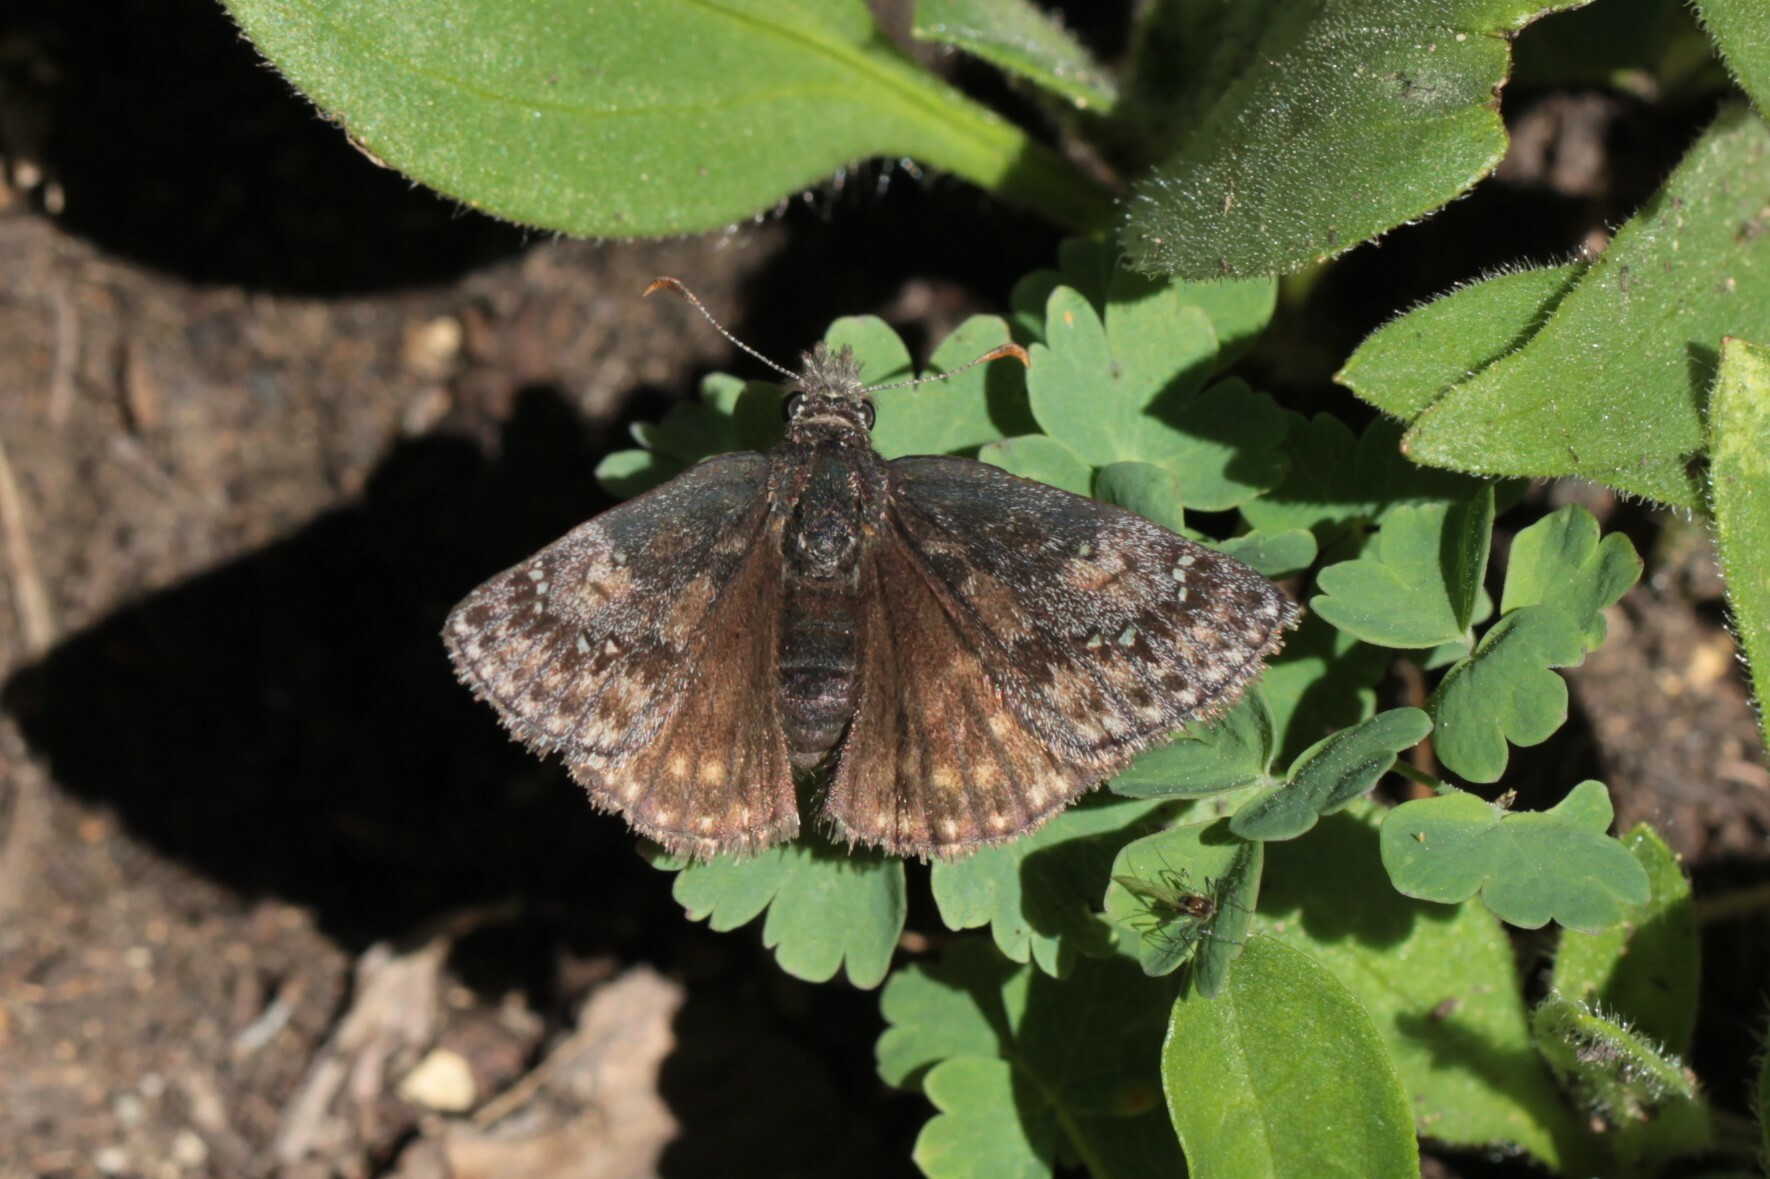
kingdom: Animalia
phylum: Arthropoda
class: Insecta
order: Lepidoptera
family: Hesperiidae
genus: Erynnis
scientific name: Erynnis persius
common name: Persius duskywing
